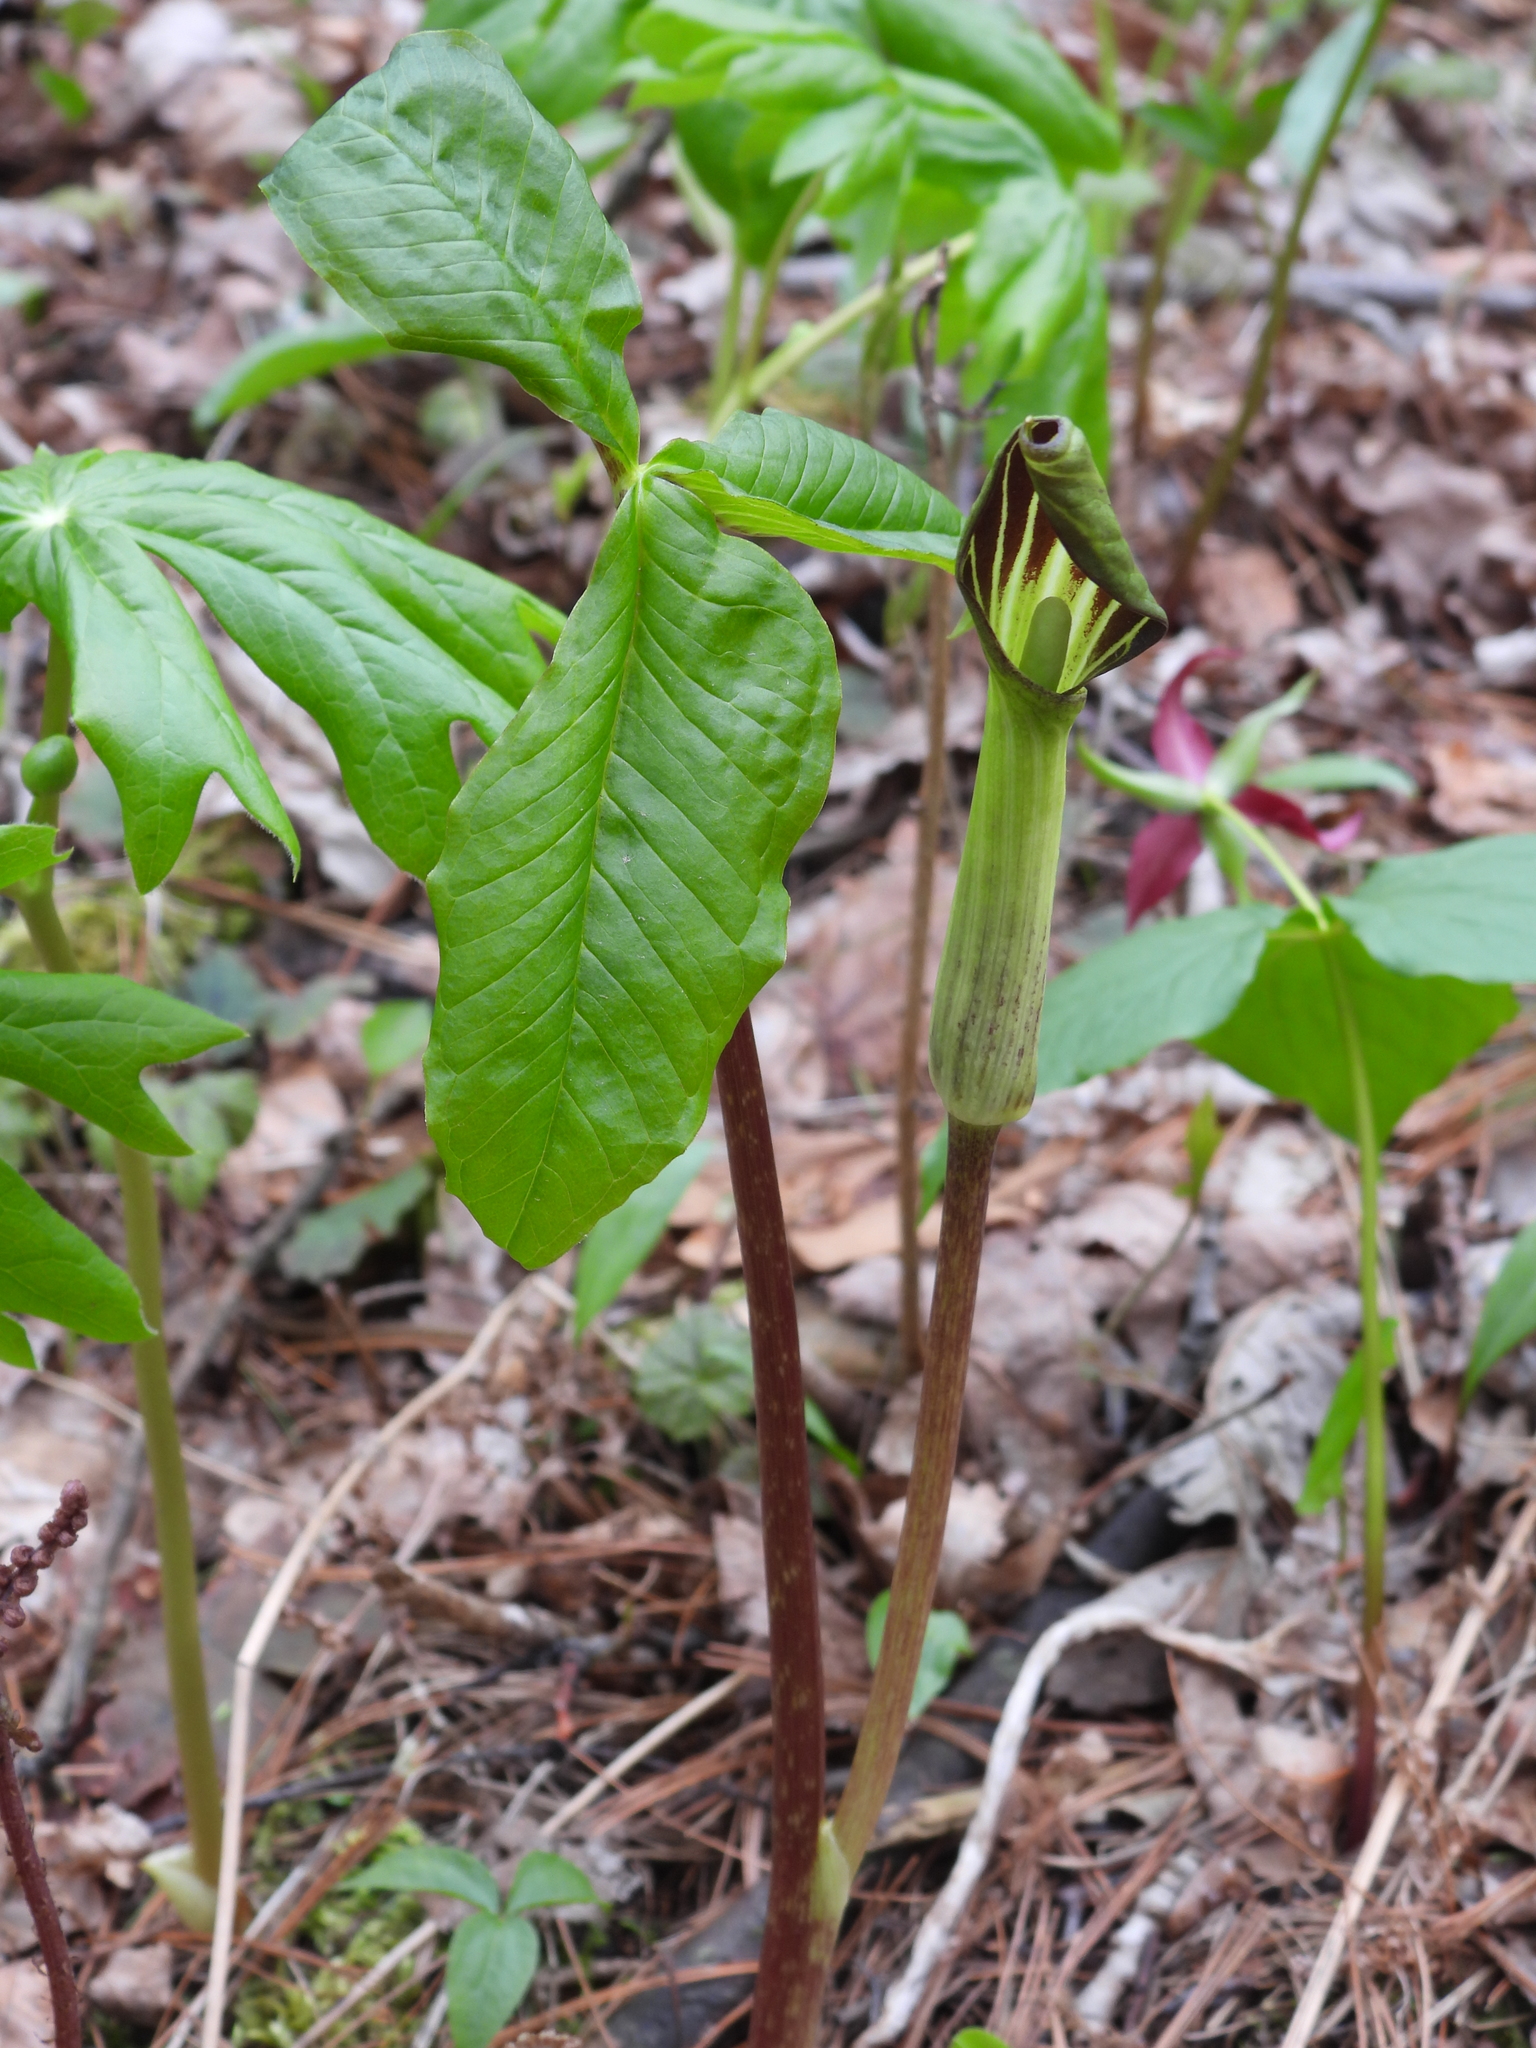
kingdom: Plantae
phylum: Tracheophyta
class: Liliopsida
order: Alismatales
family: Araceae
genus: Arisaema
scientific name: Arisaema triphyllum
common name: Jack-in-the-pulpit
